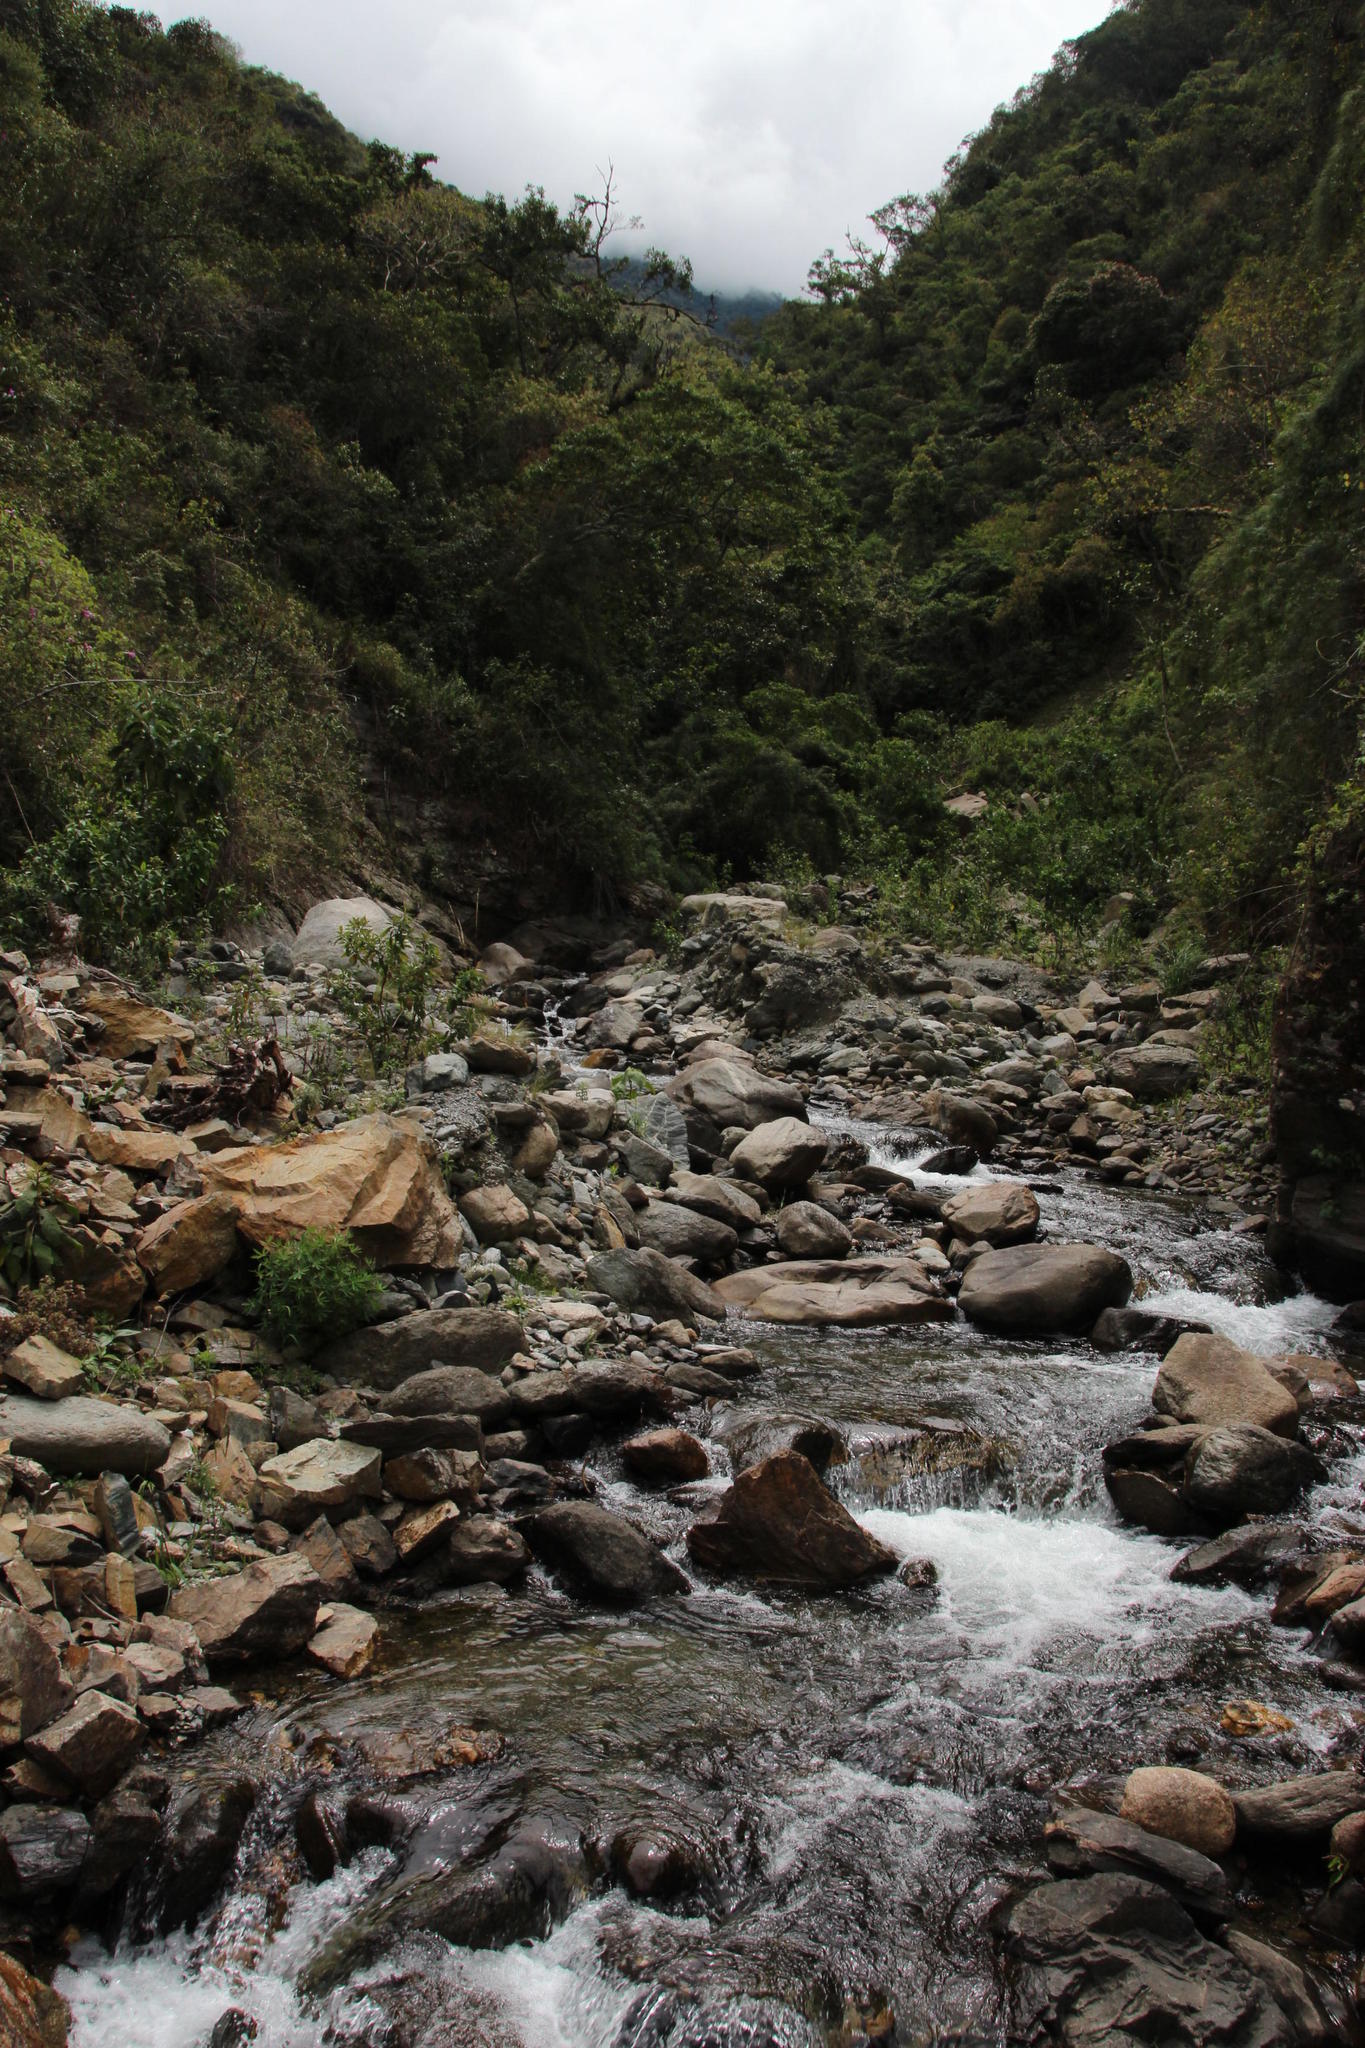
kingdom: Plantae
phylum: Tracheophyta
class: Liliopsida
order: Asparagales
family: Orchidaceae
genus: Sobralia
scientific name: Sobralia dichotoma
